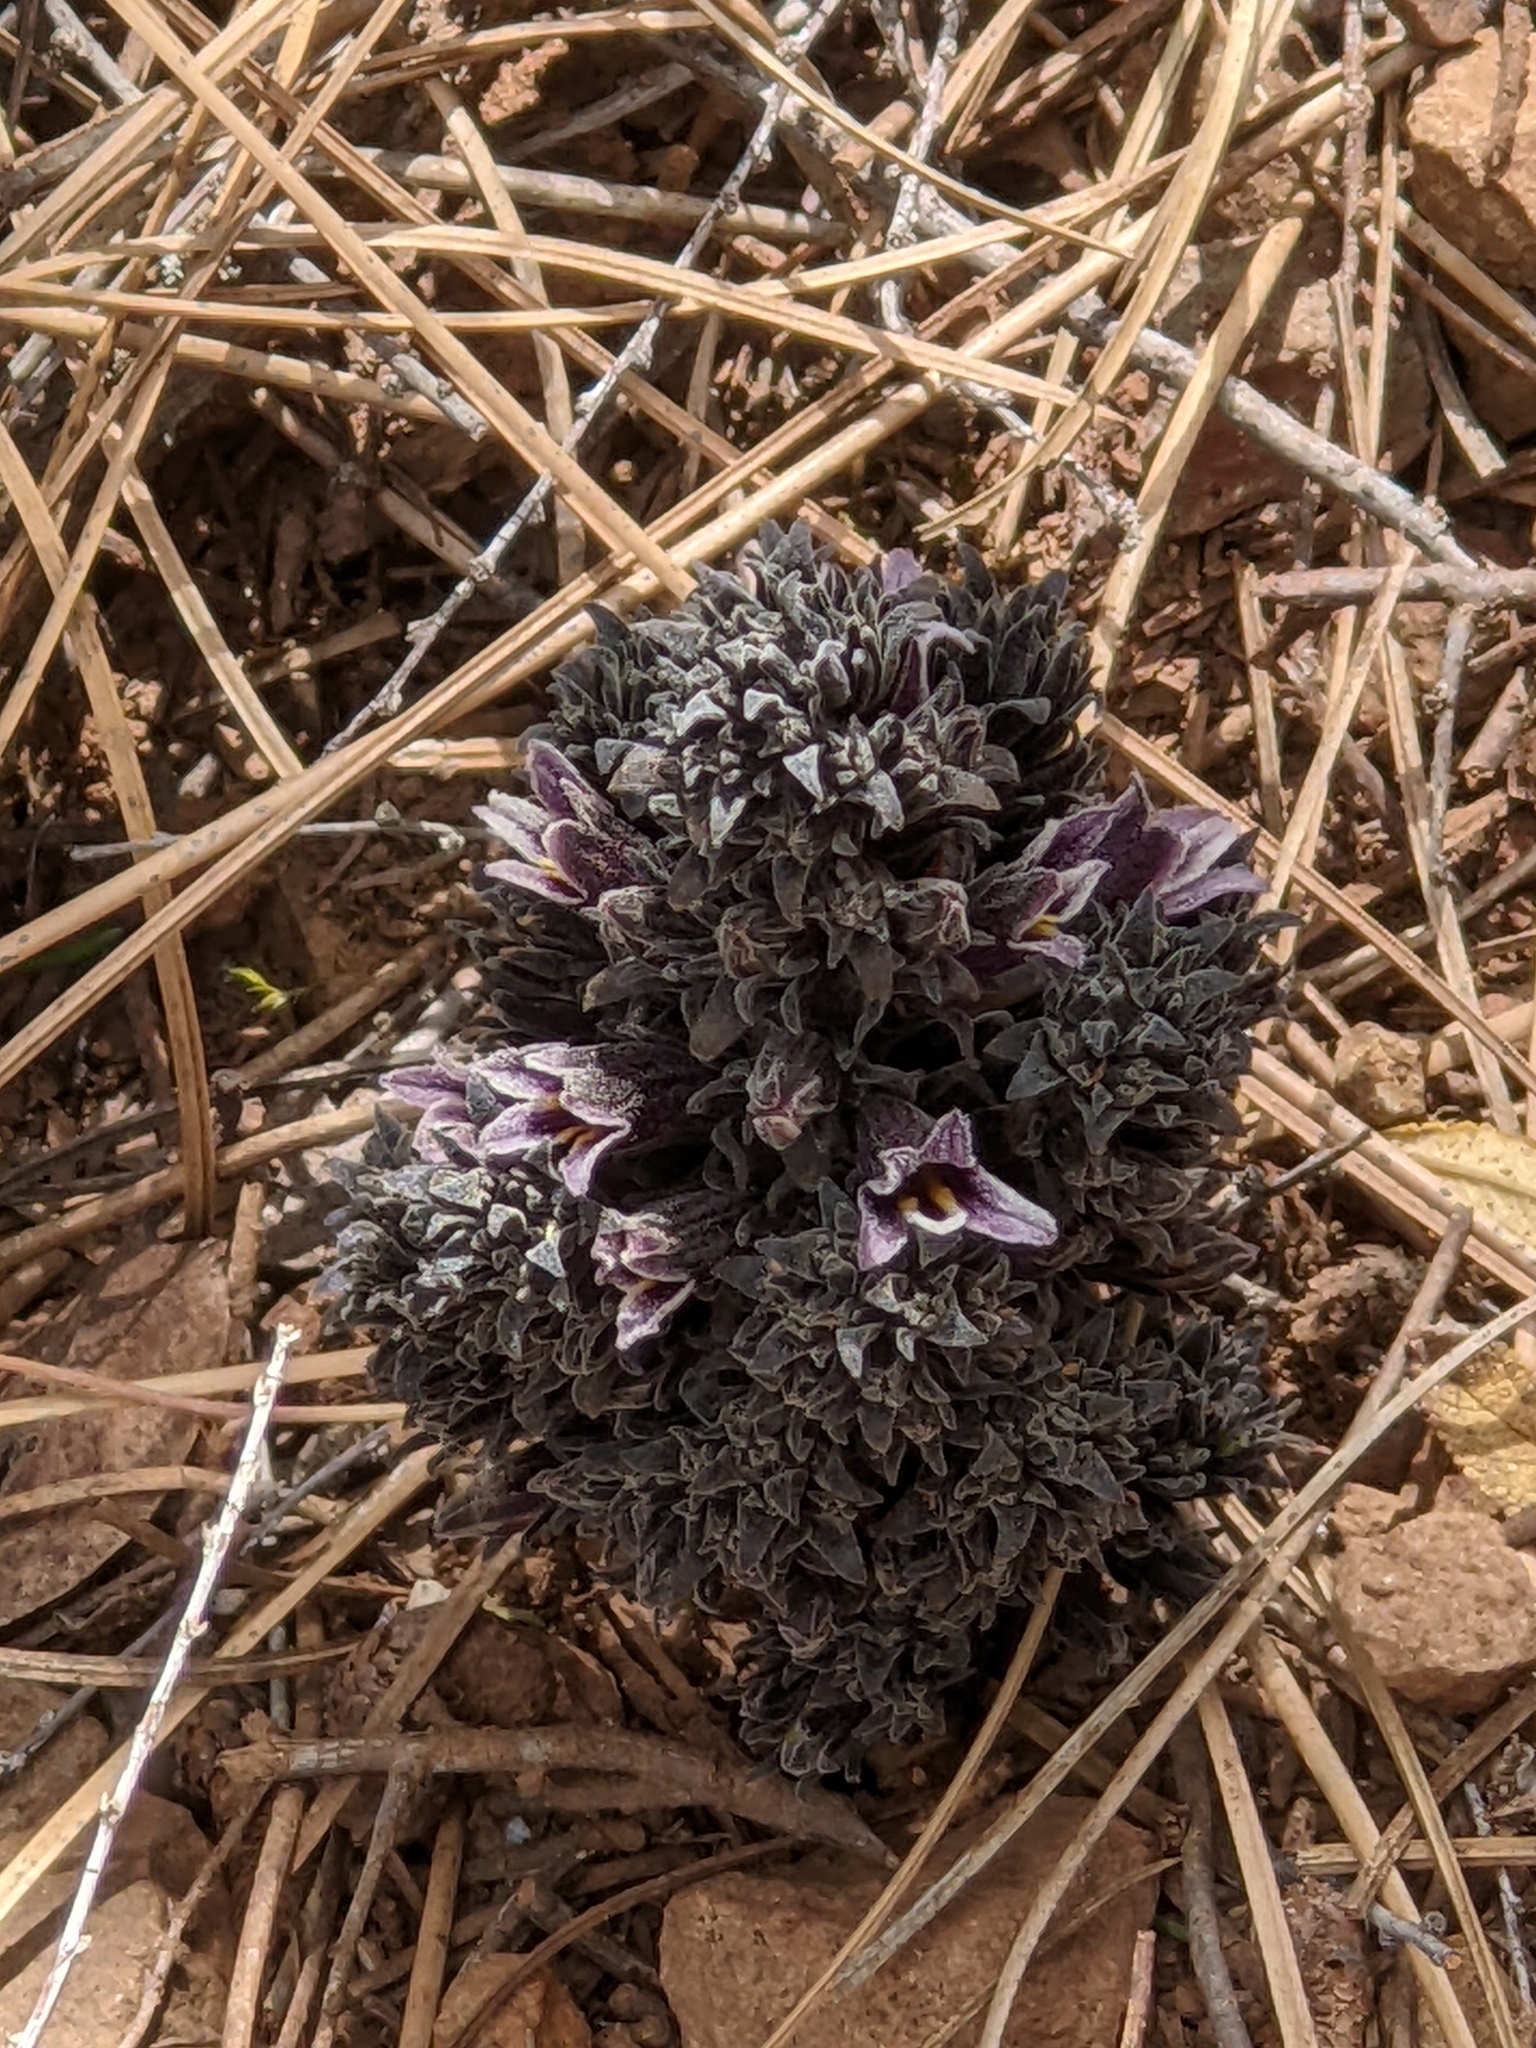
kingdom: Plantae
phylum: Tracheophyta
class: Magnoliopsida
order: Lamiales
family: Orobanchaceae
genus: Aphyllon
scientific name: Aphyllon tuberosum
